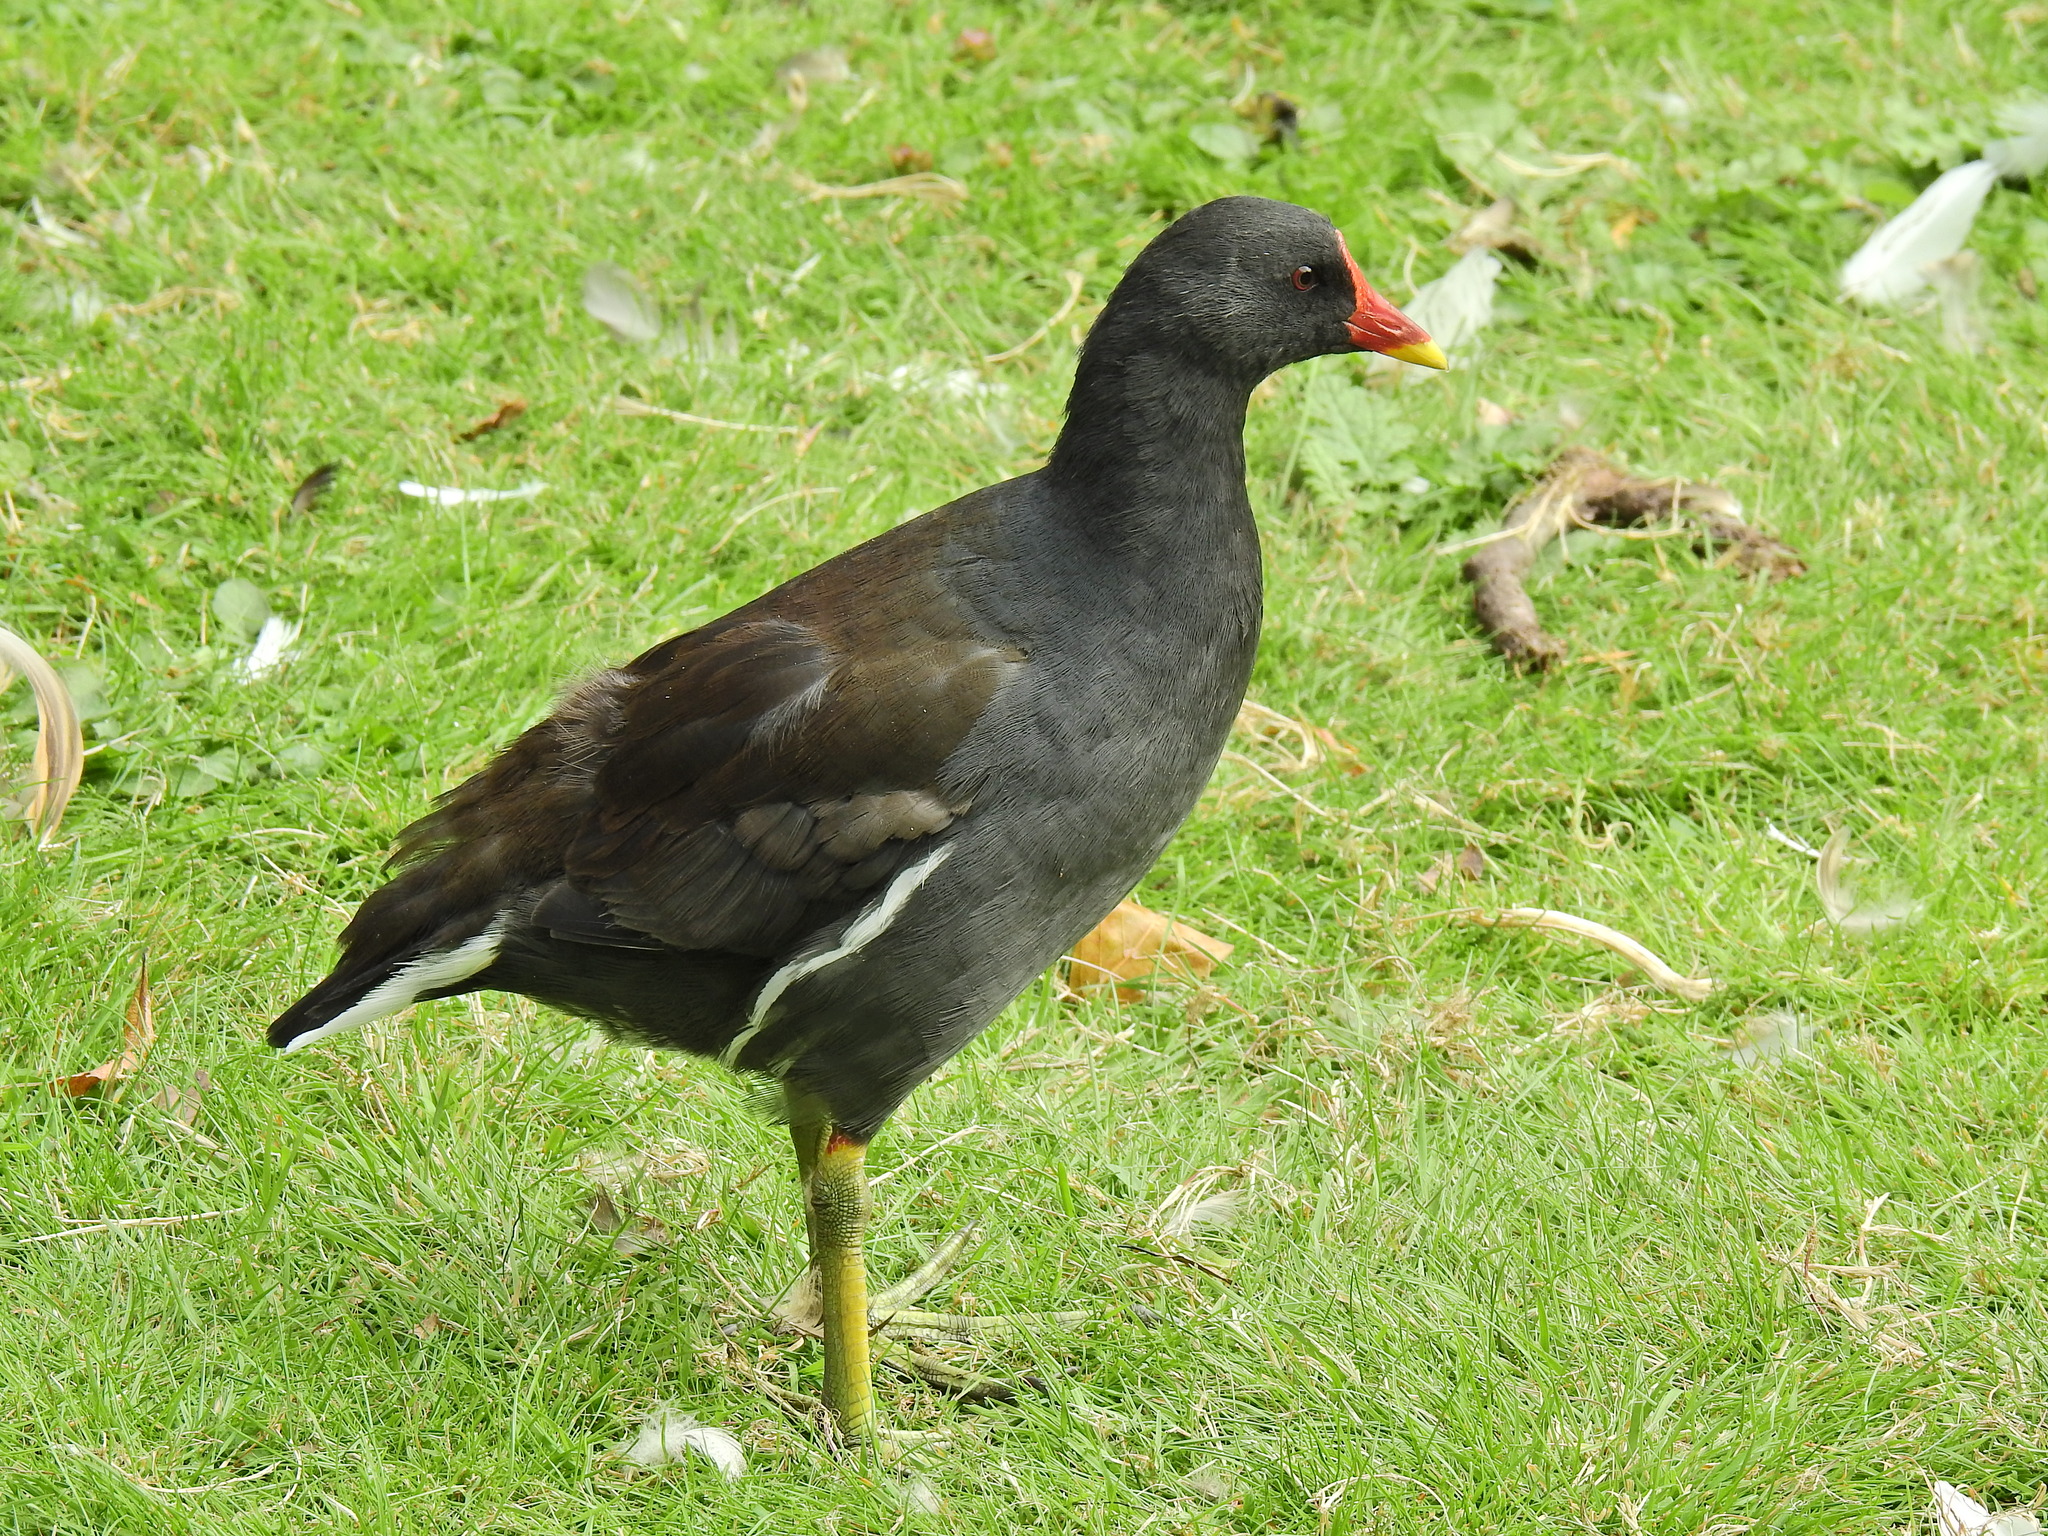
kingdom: Animalia
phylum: Chordata
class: Aves
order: Gruiformes
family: Rallidae
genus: Gallinula
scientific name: Gallinula chloropus
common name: Common moorhen
